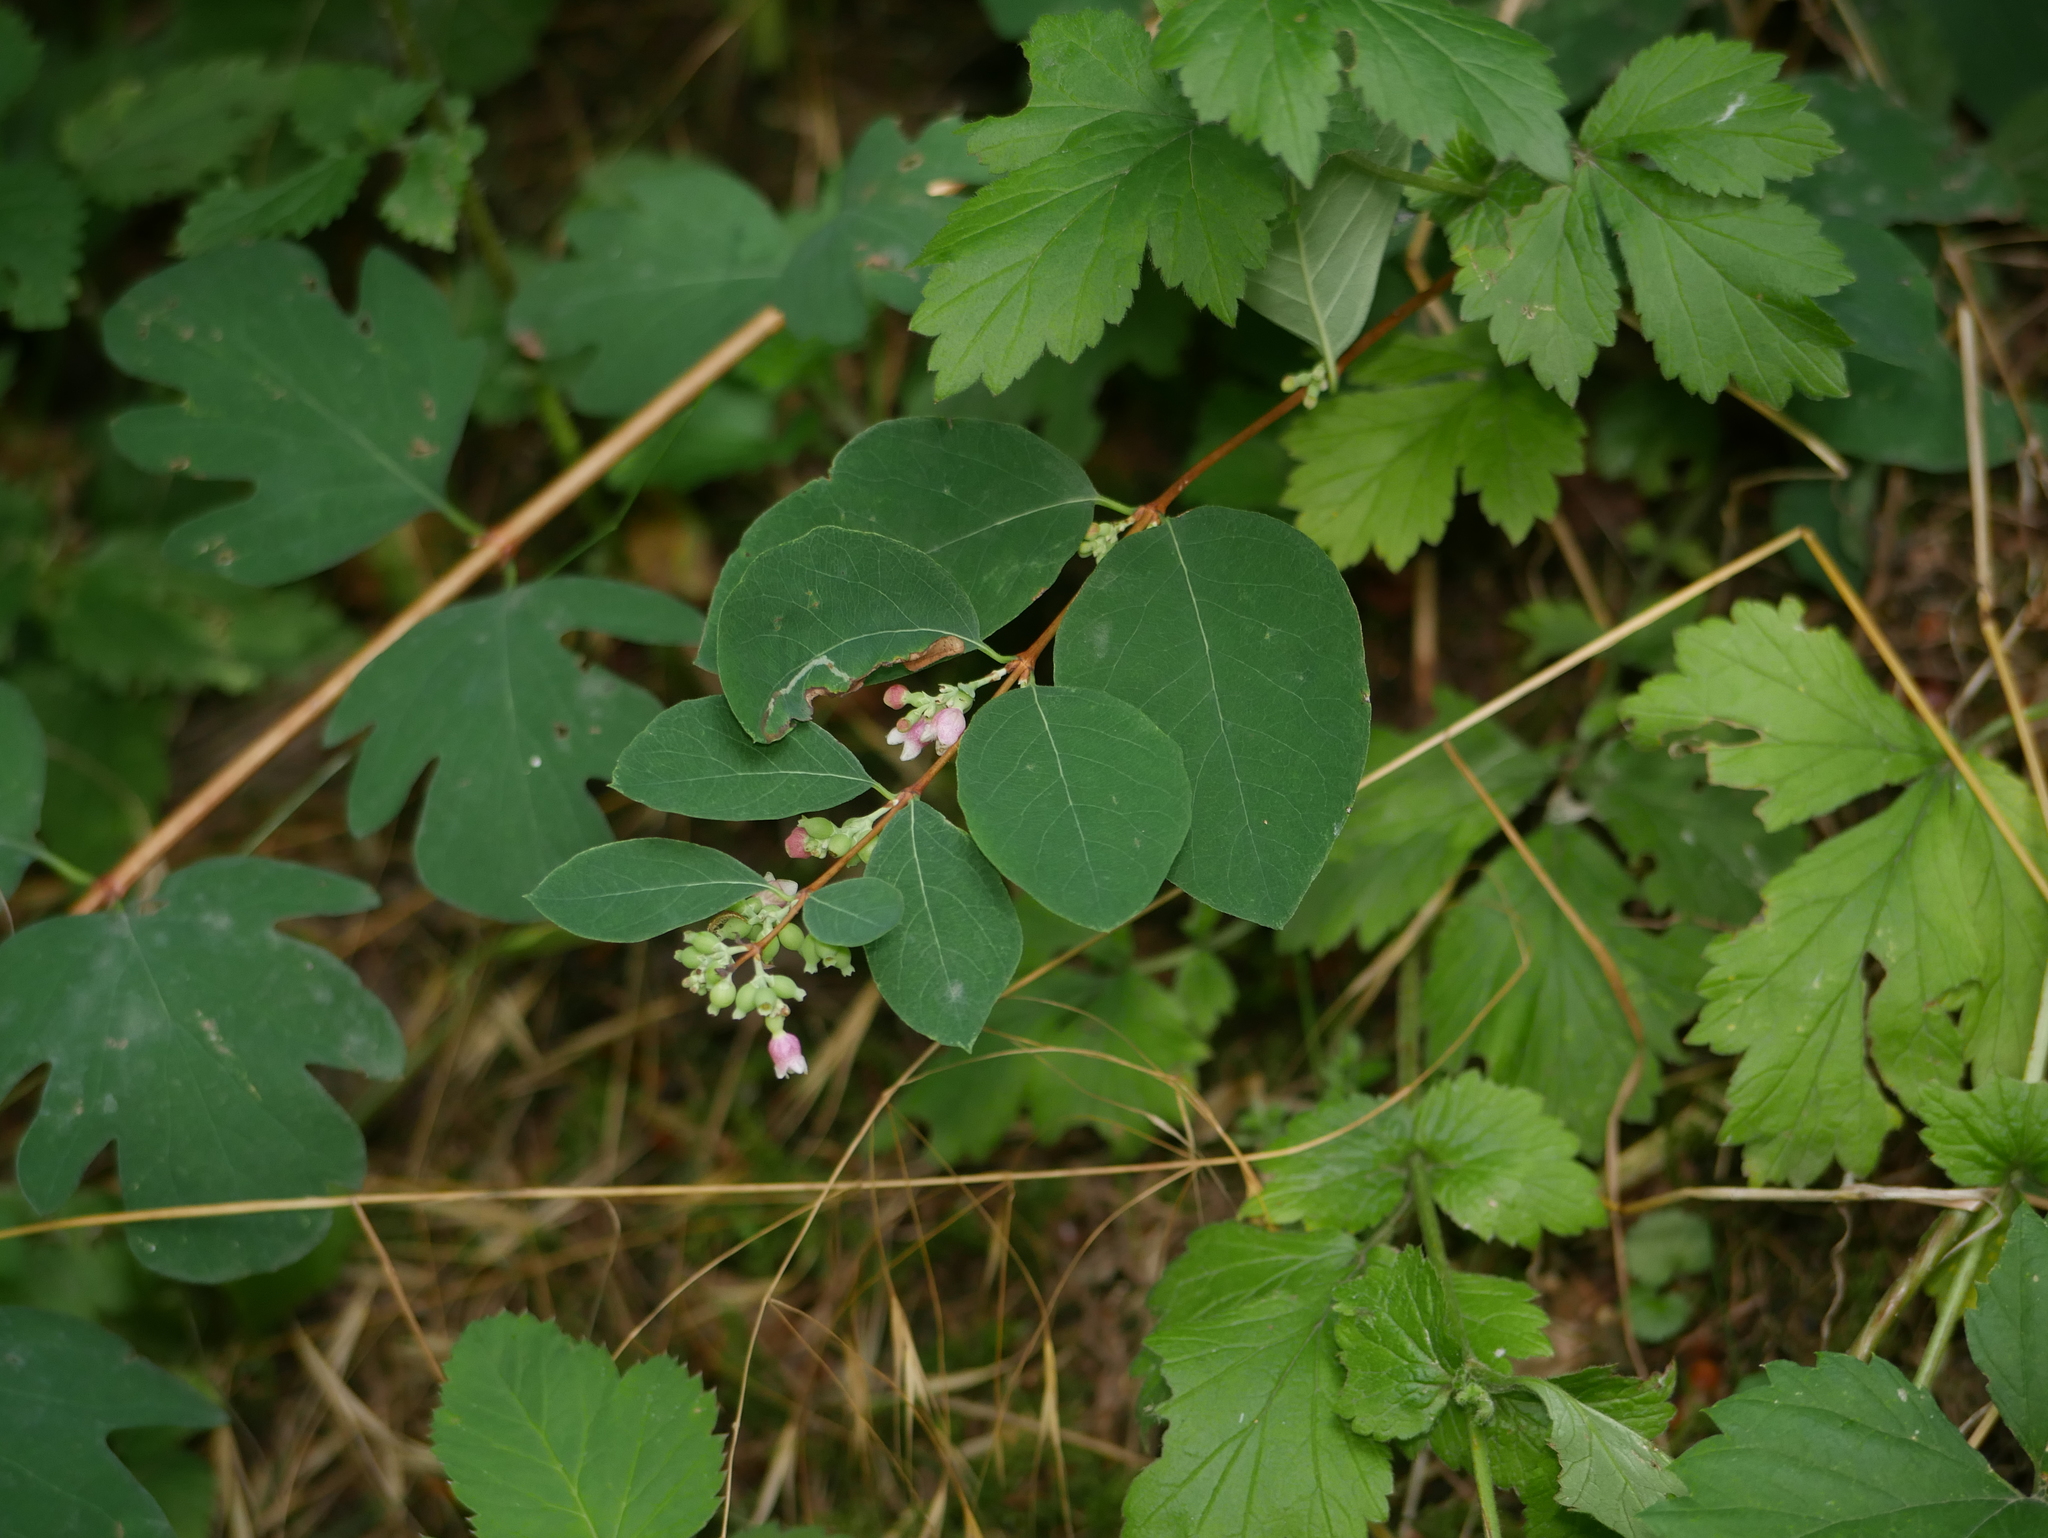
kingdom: Plantae
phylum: Tracheophyta
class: Magnoliopsida
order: Dipsacales
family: Caprifoliaceae
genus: Symphoricarpos
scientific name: Symphoricarpos albus
